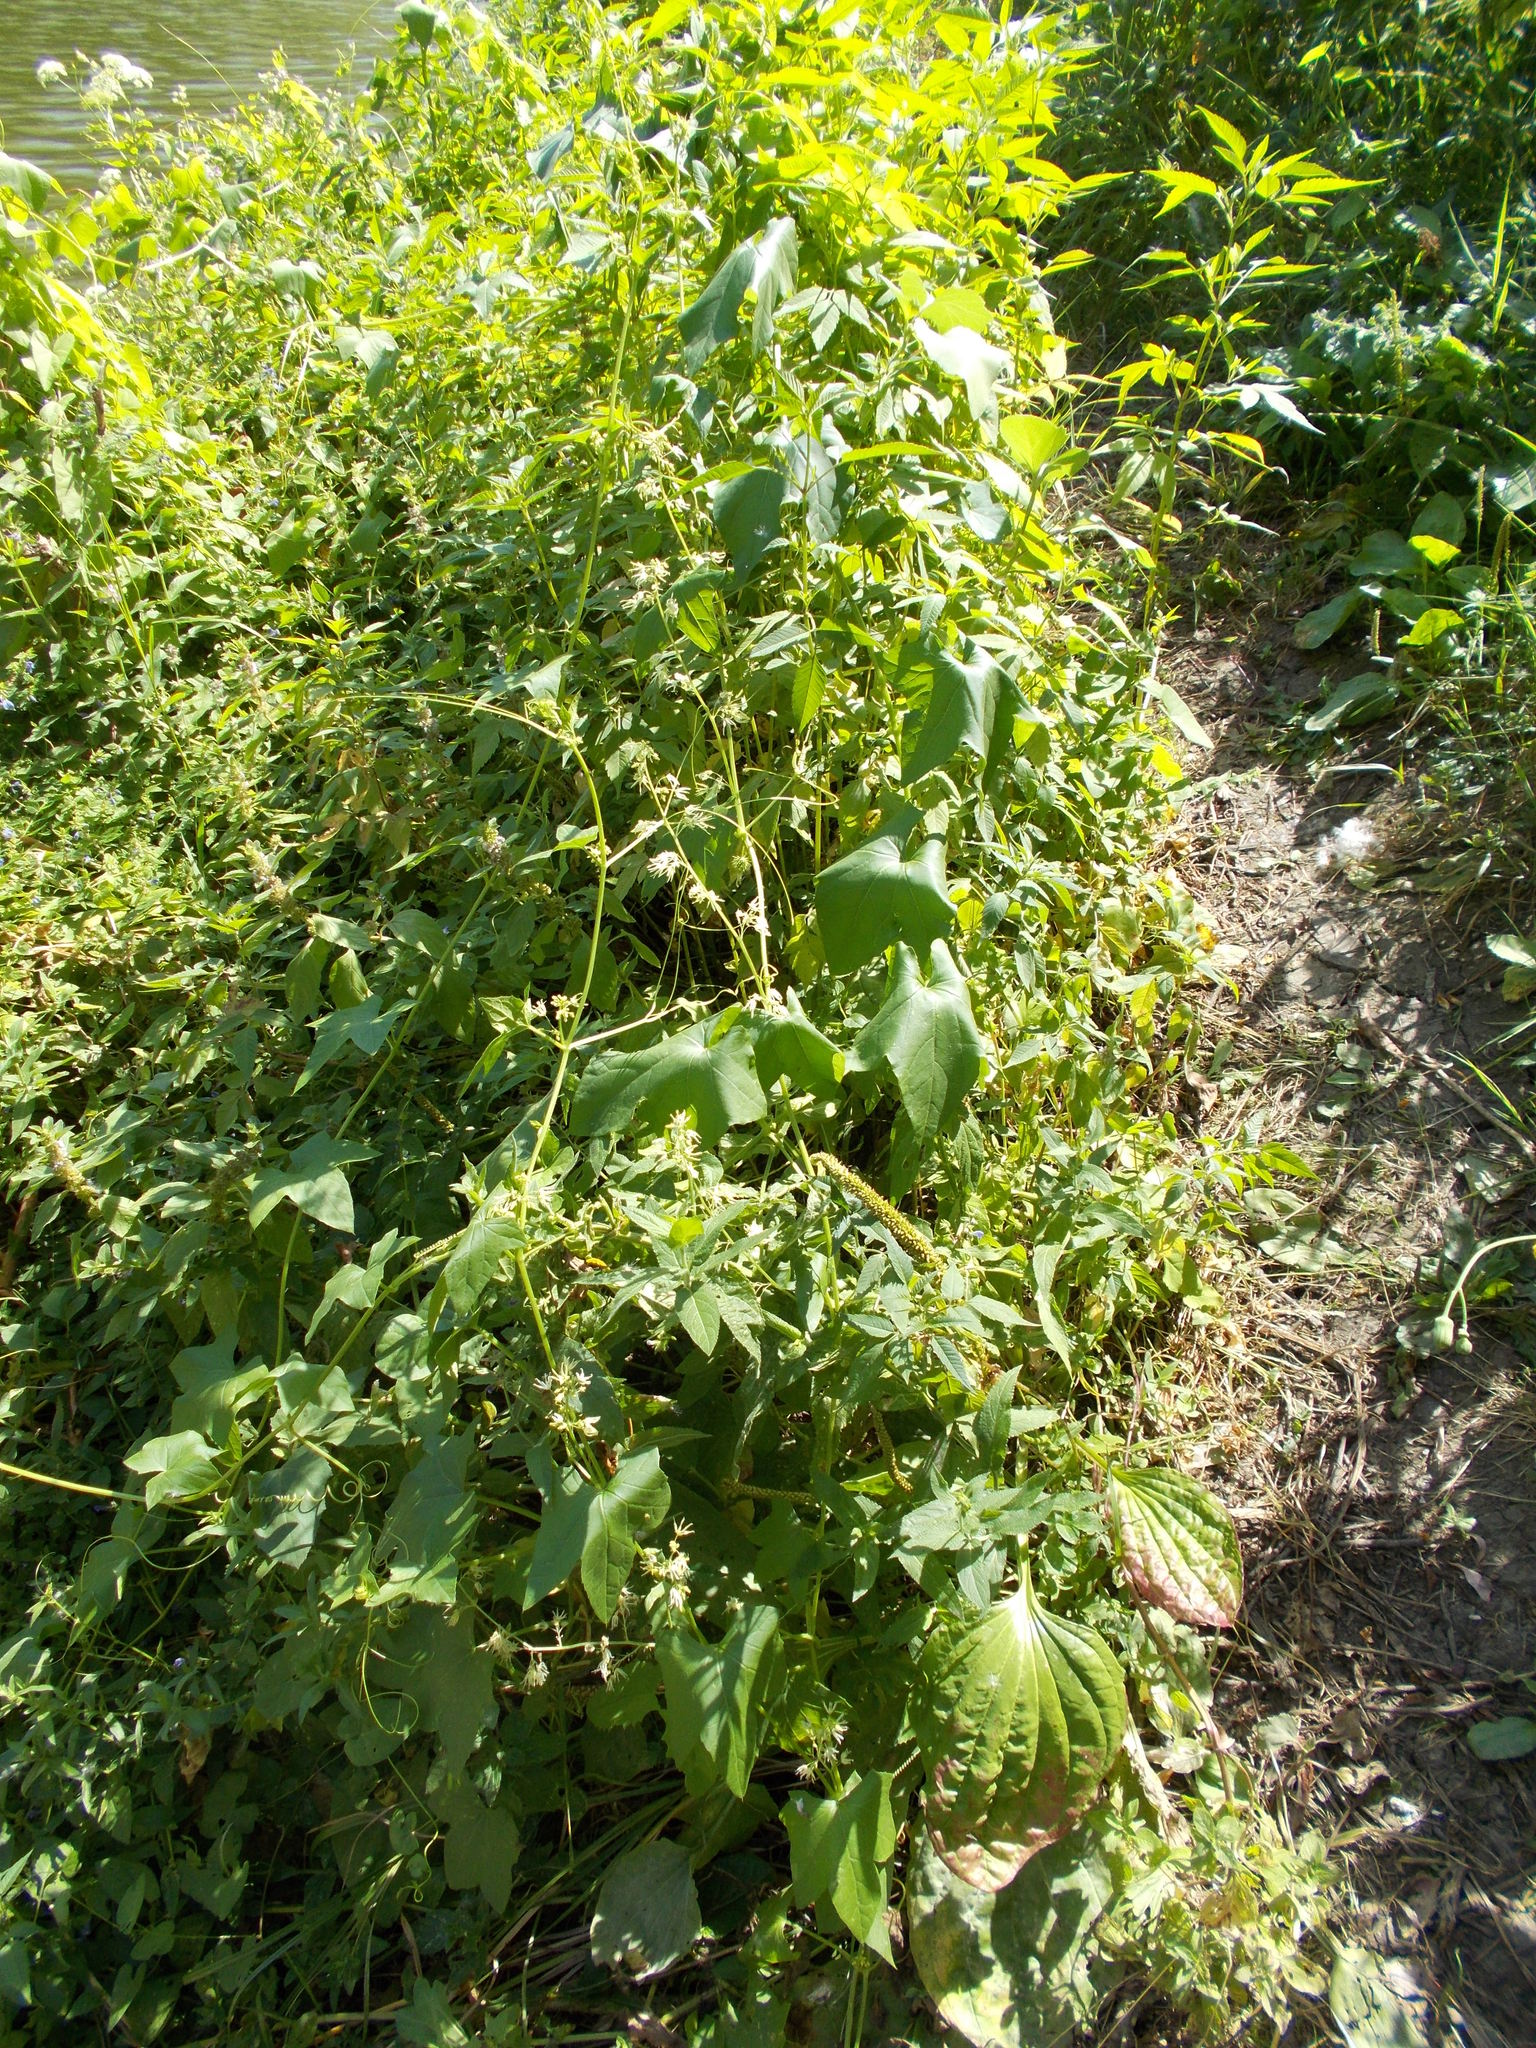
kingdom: Plantae
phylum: Tracheophyta
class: Magnoliopsida
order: Cucurbitales
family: Cucurbitaceae
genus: Echinocystis
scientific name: Echinocystis lobata
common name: Wild cucumber
